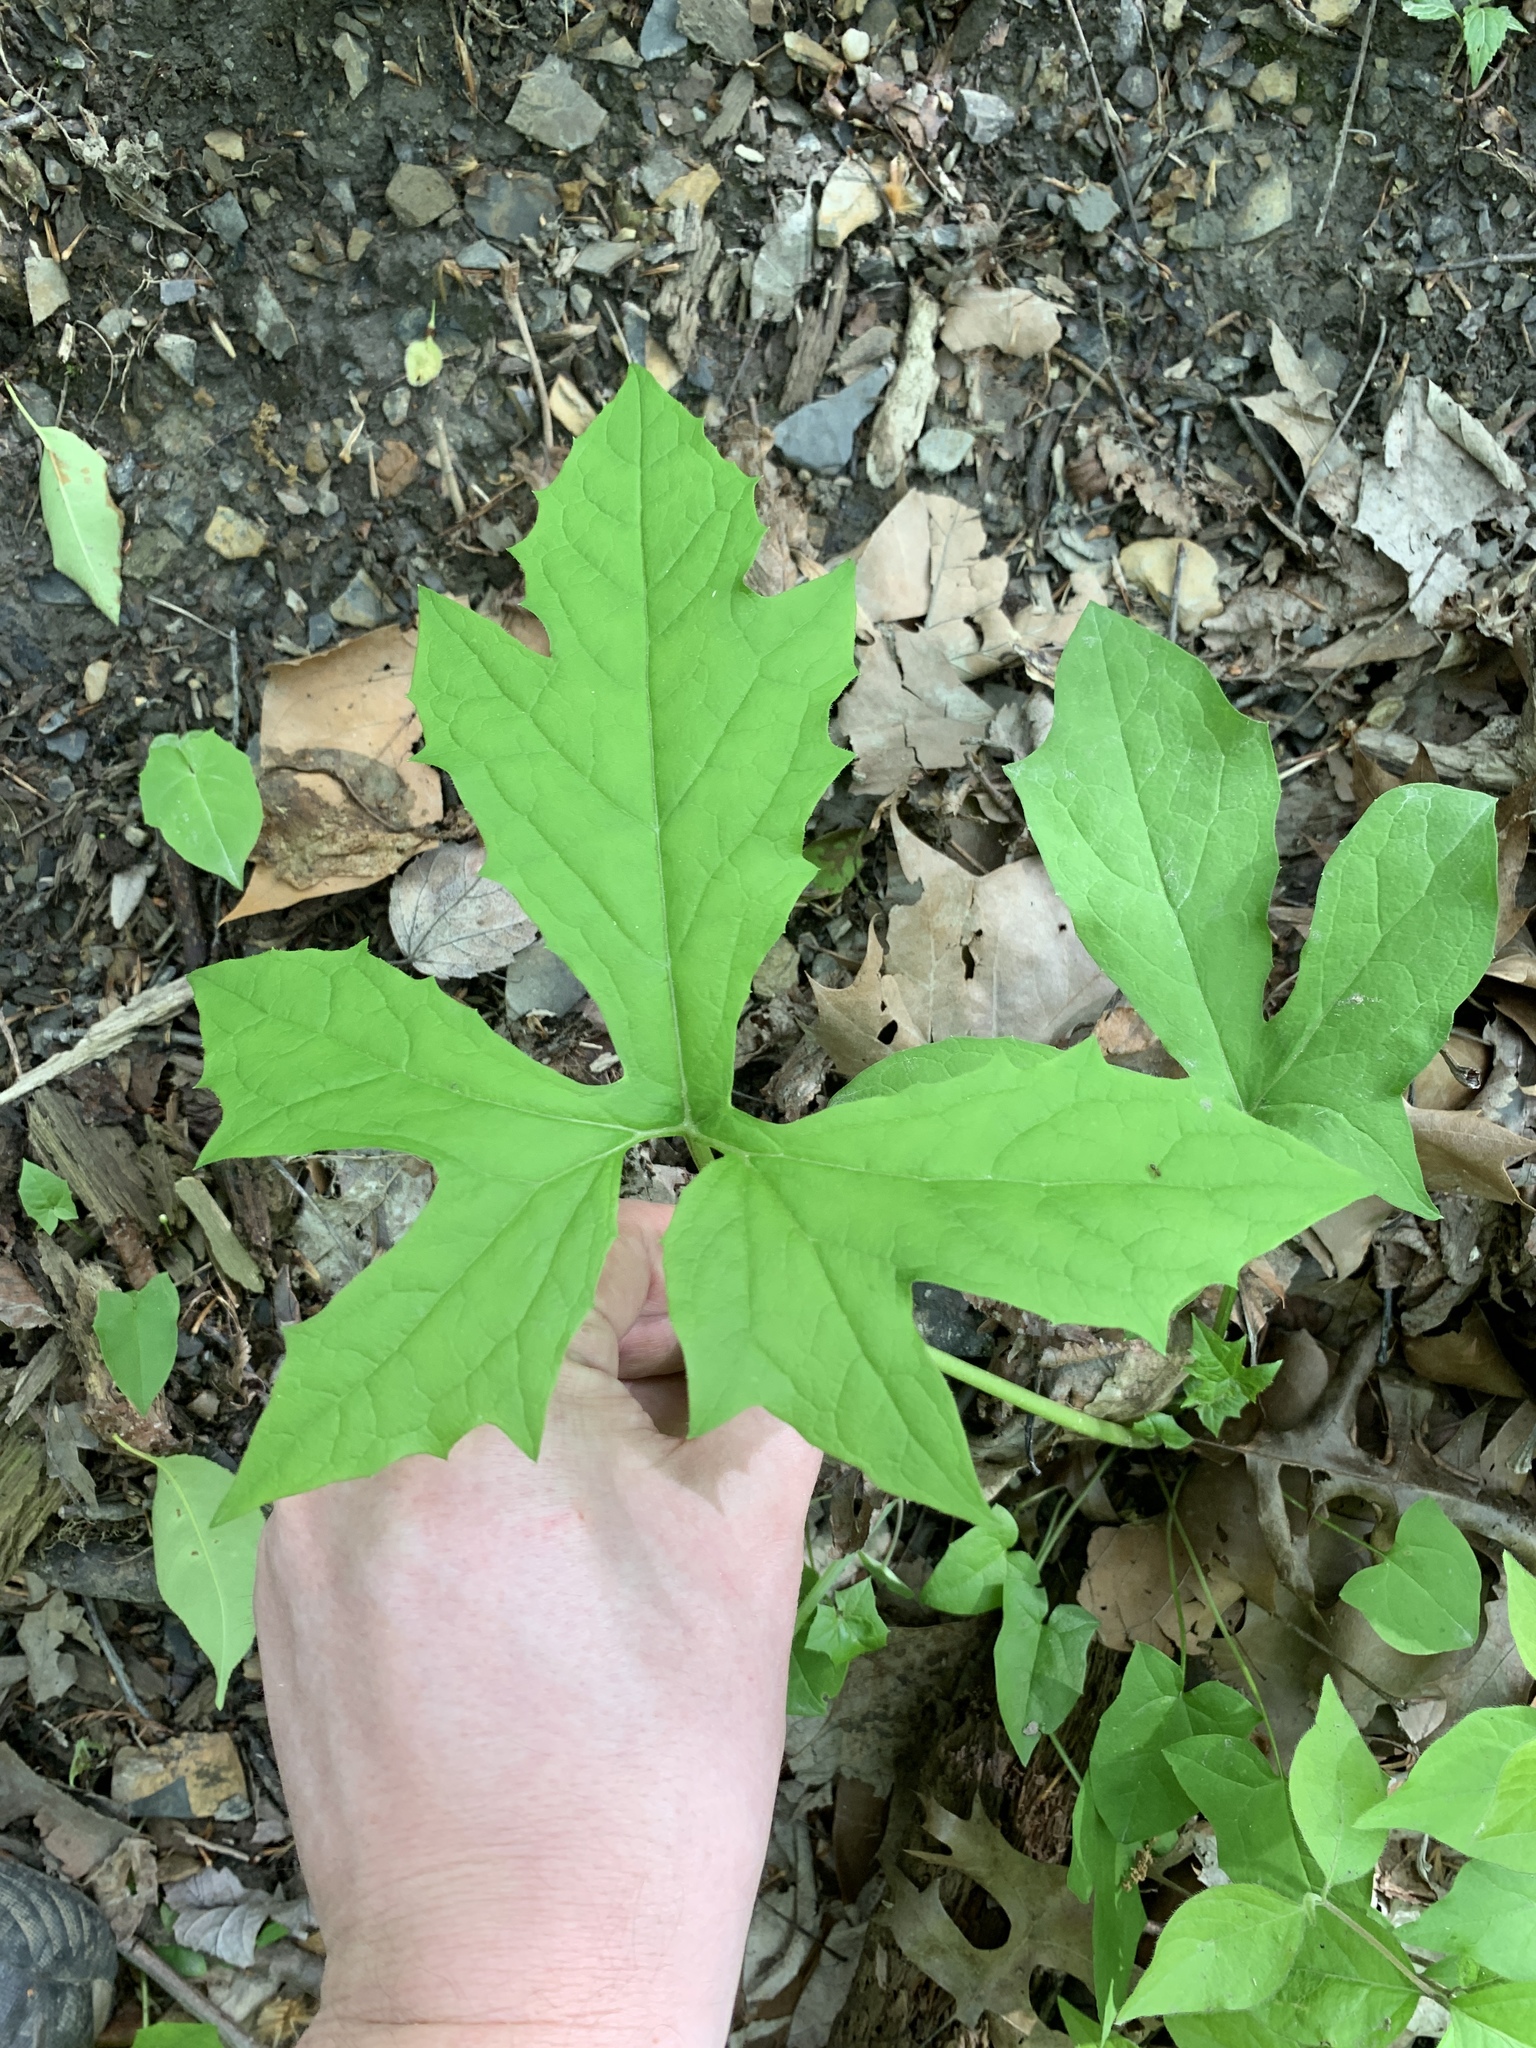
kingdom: Plantae
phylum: Tracheophyta
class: Magnoliopsida
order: Asterales
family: Asteraceae
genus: Nabalus
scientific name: Nabalus albus
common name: White rattlesnakeroot
